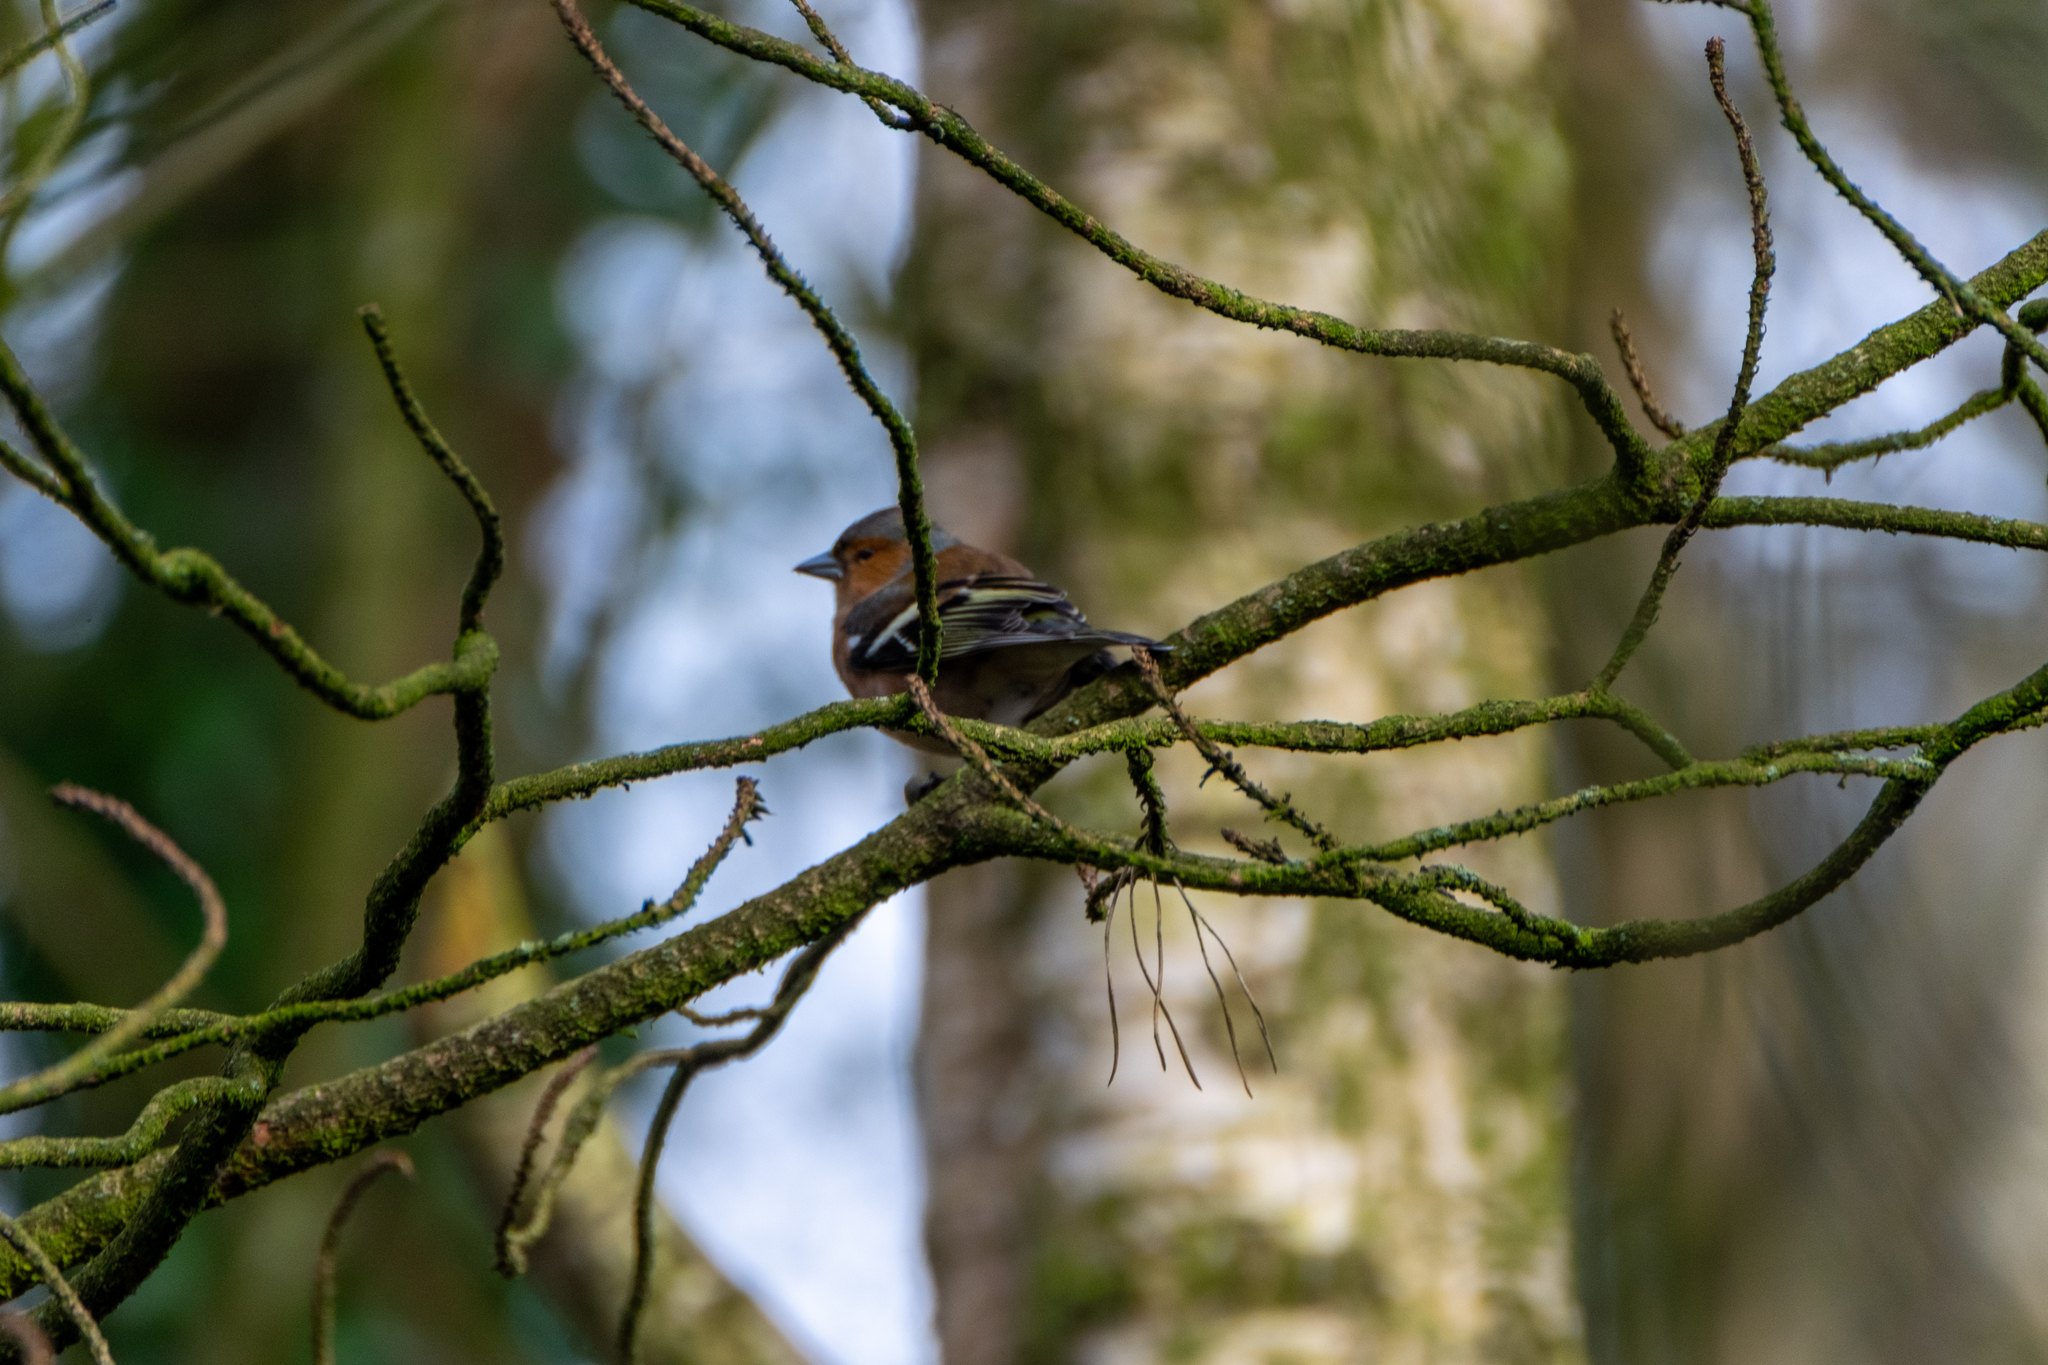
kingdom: Animalia
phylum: Chordata
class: Aves
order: Passeriformes
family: Fringillidae
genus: Fringilla
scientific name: Fringilla coelebs
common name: Common chaffinch
